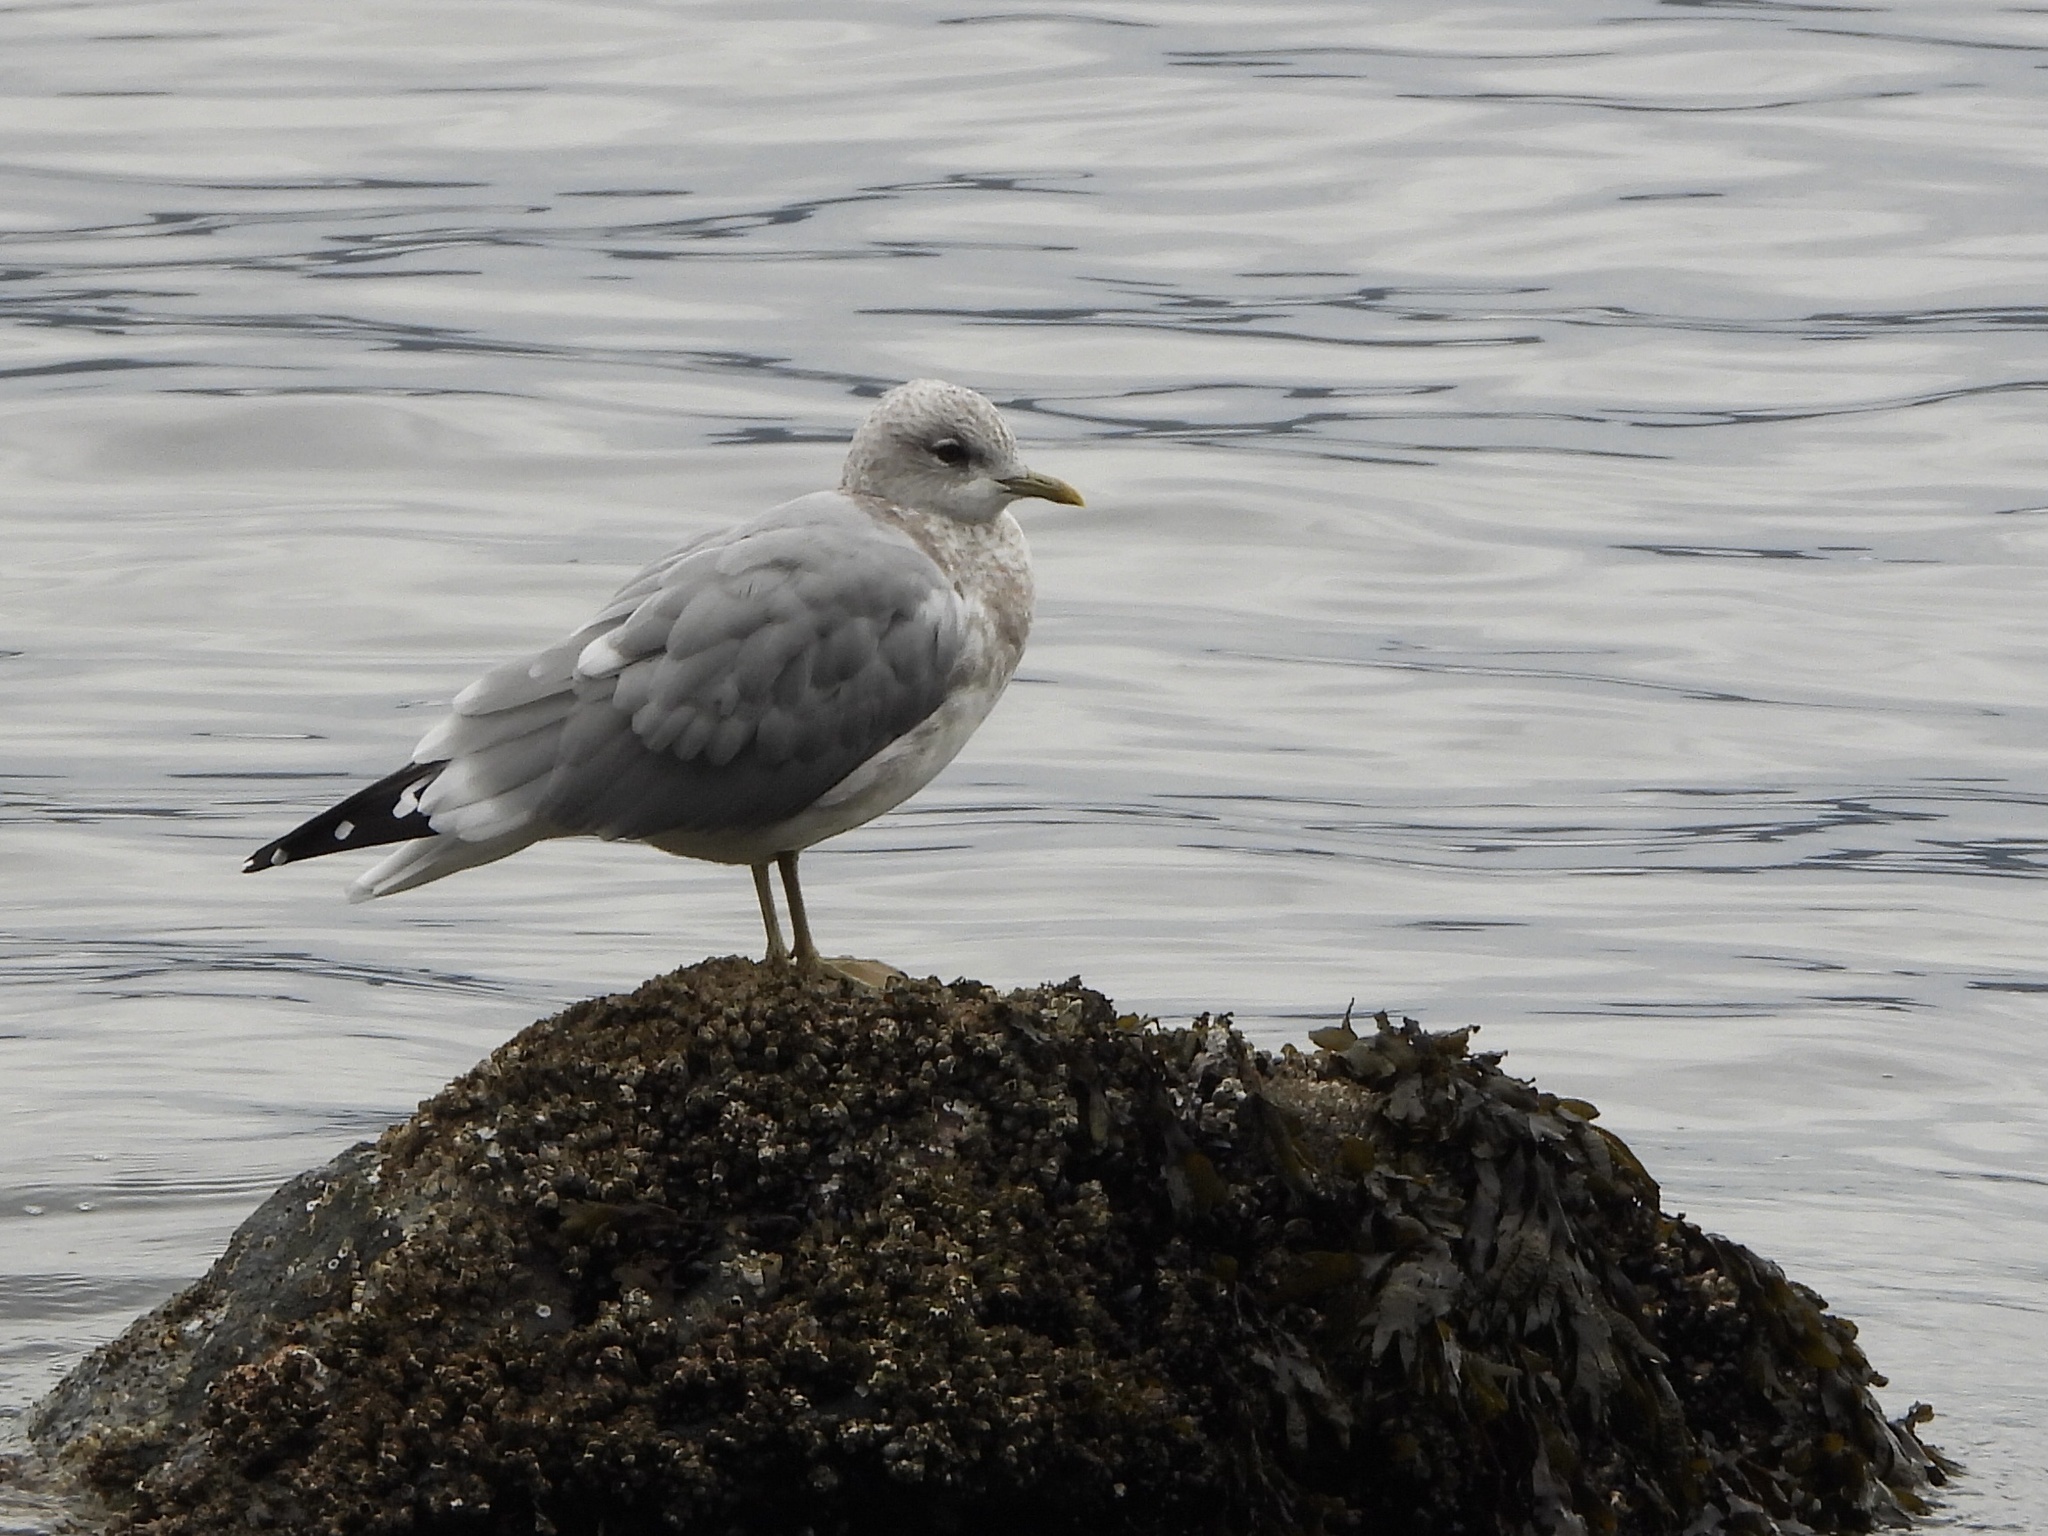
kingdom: Animalia
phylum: Chordata
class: Aves
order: Charadriiformes
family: Laridae
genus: Larus
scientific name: Larus brachyrhynchus
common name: Short-billed gull
